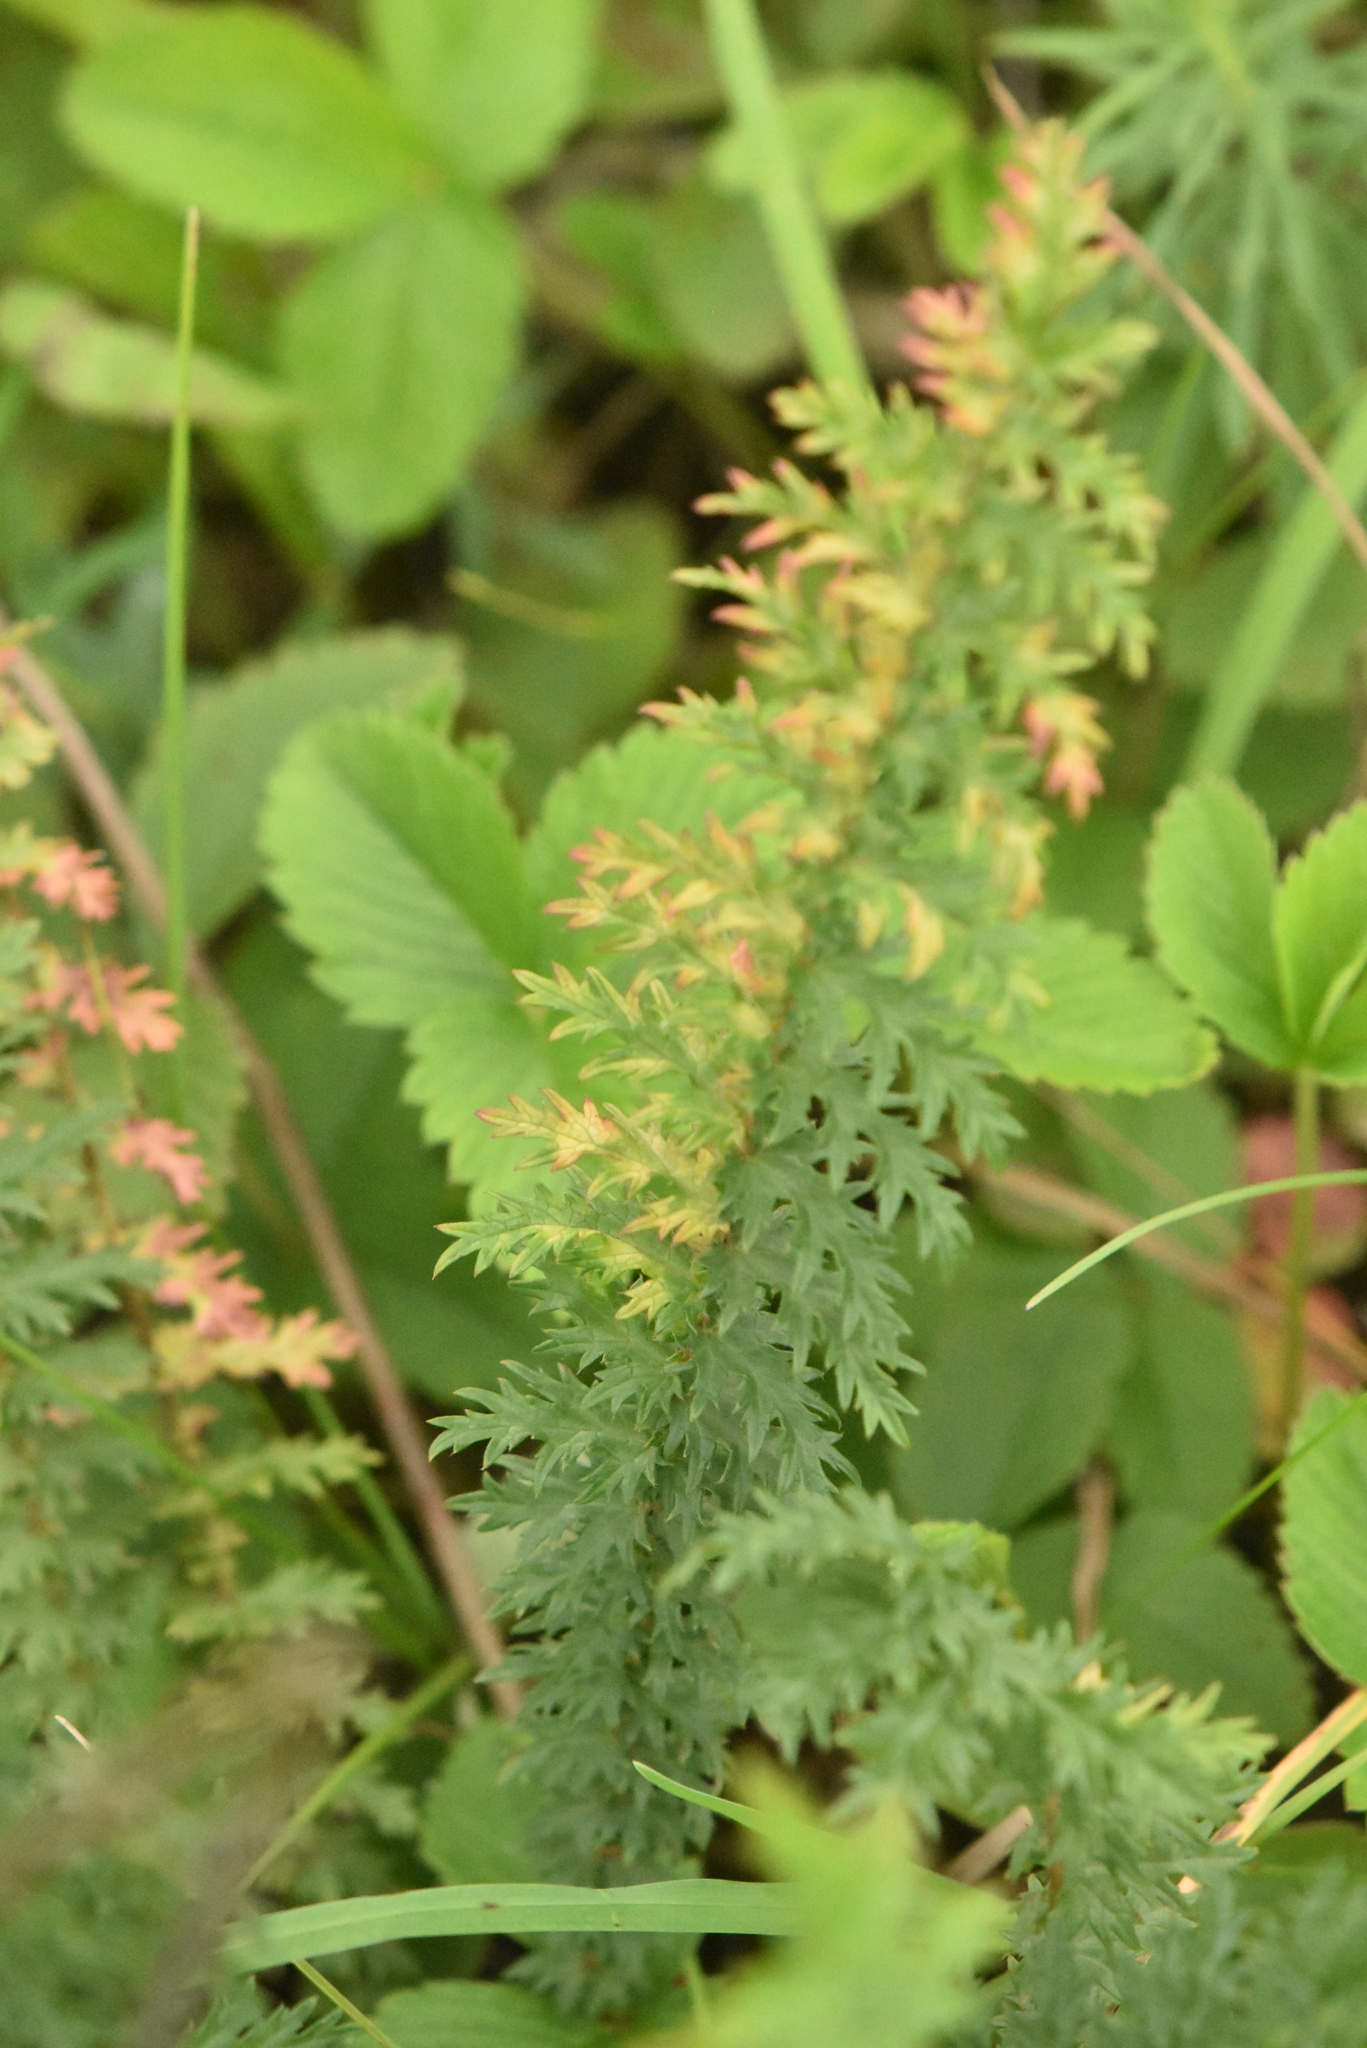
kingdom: Plantae
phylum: Tracheophyta
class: Magnoliopsida
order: Rosales
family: Rosaceae
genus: Filipendula
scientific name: Filipendula vulgaris
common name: Dropwort
